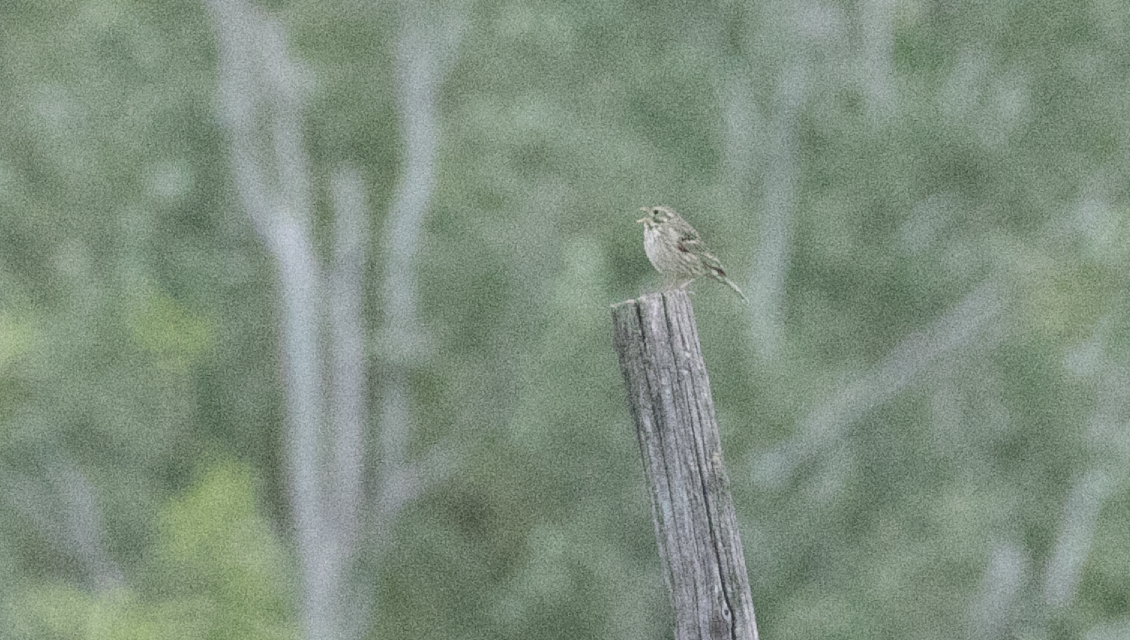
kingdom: Animalia
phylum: Chordata
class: Aves
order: Passeriformes
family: Emberizidae
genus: Emberiza
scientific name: Emberiza calandra
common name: Corn bunting
